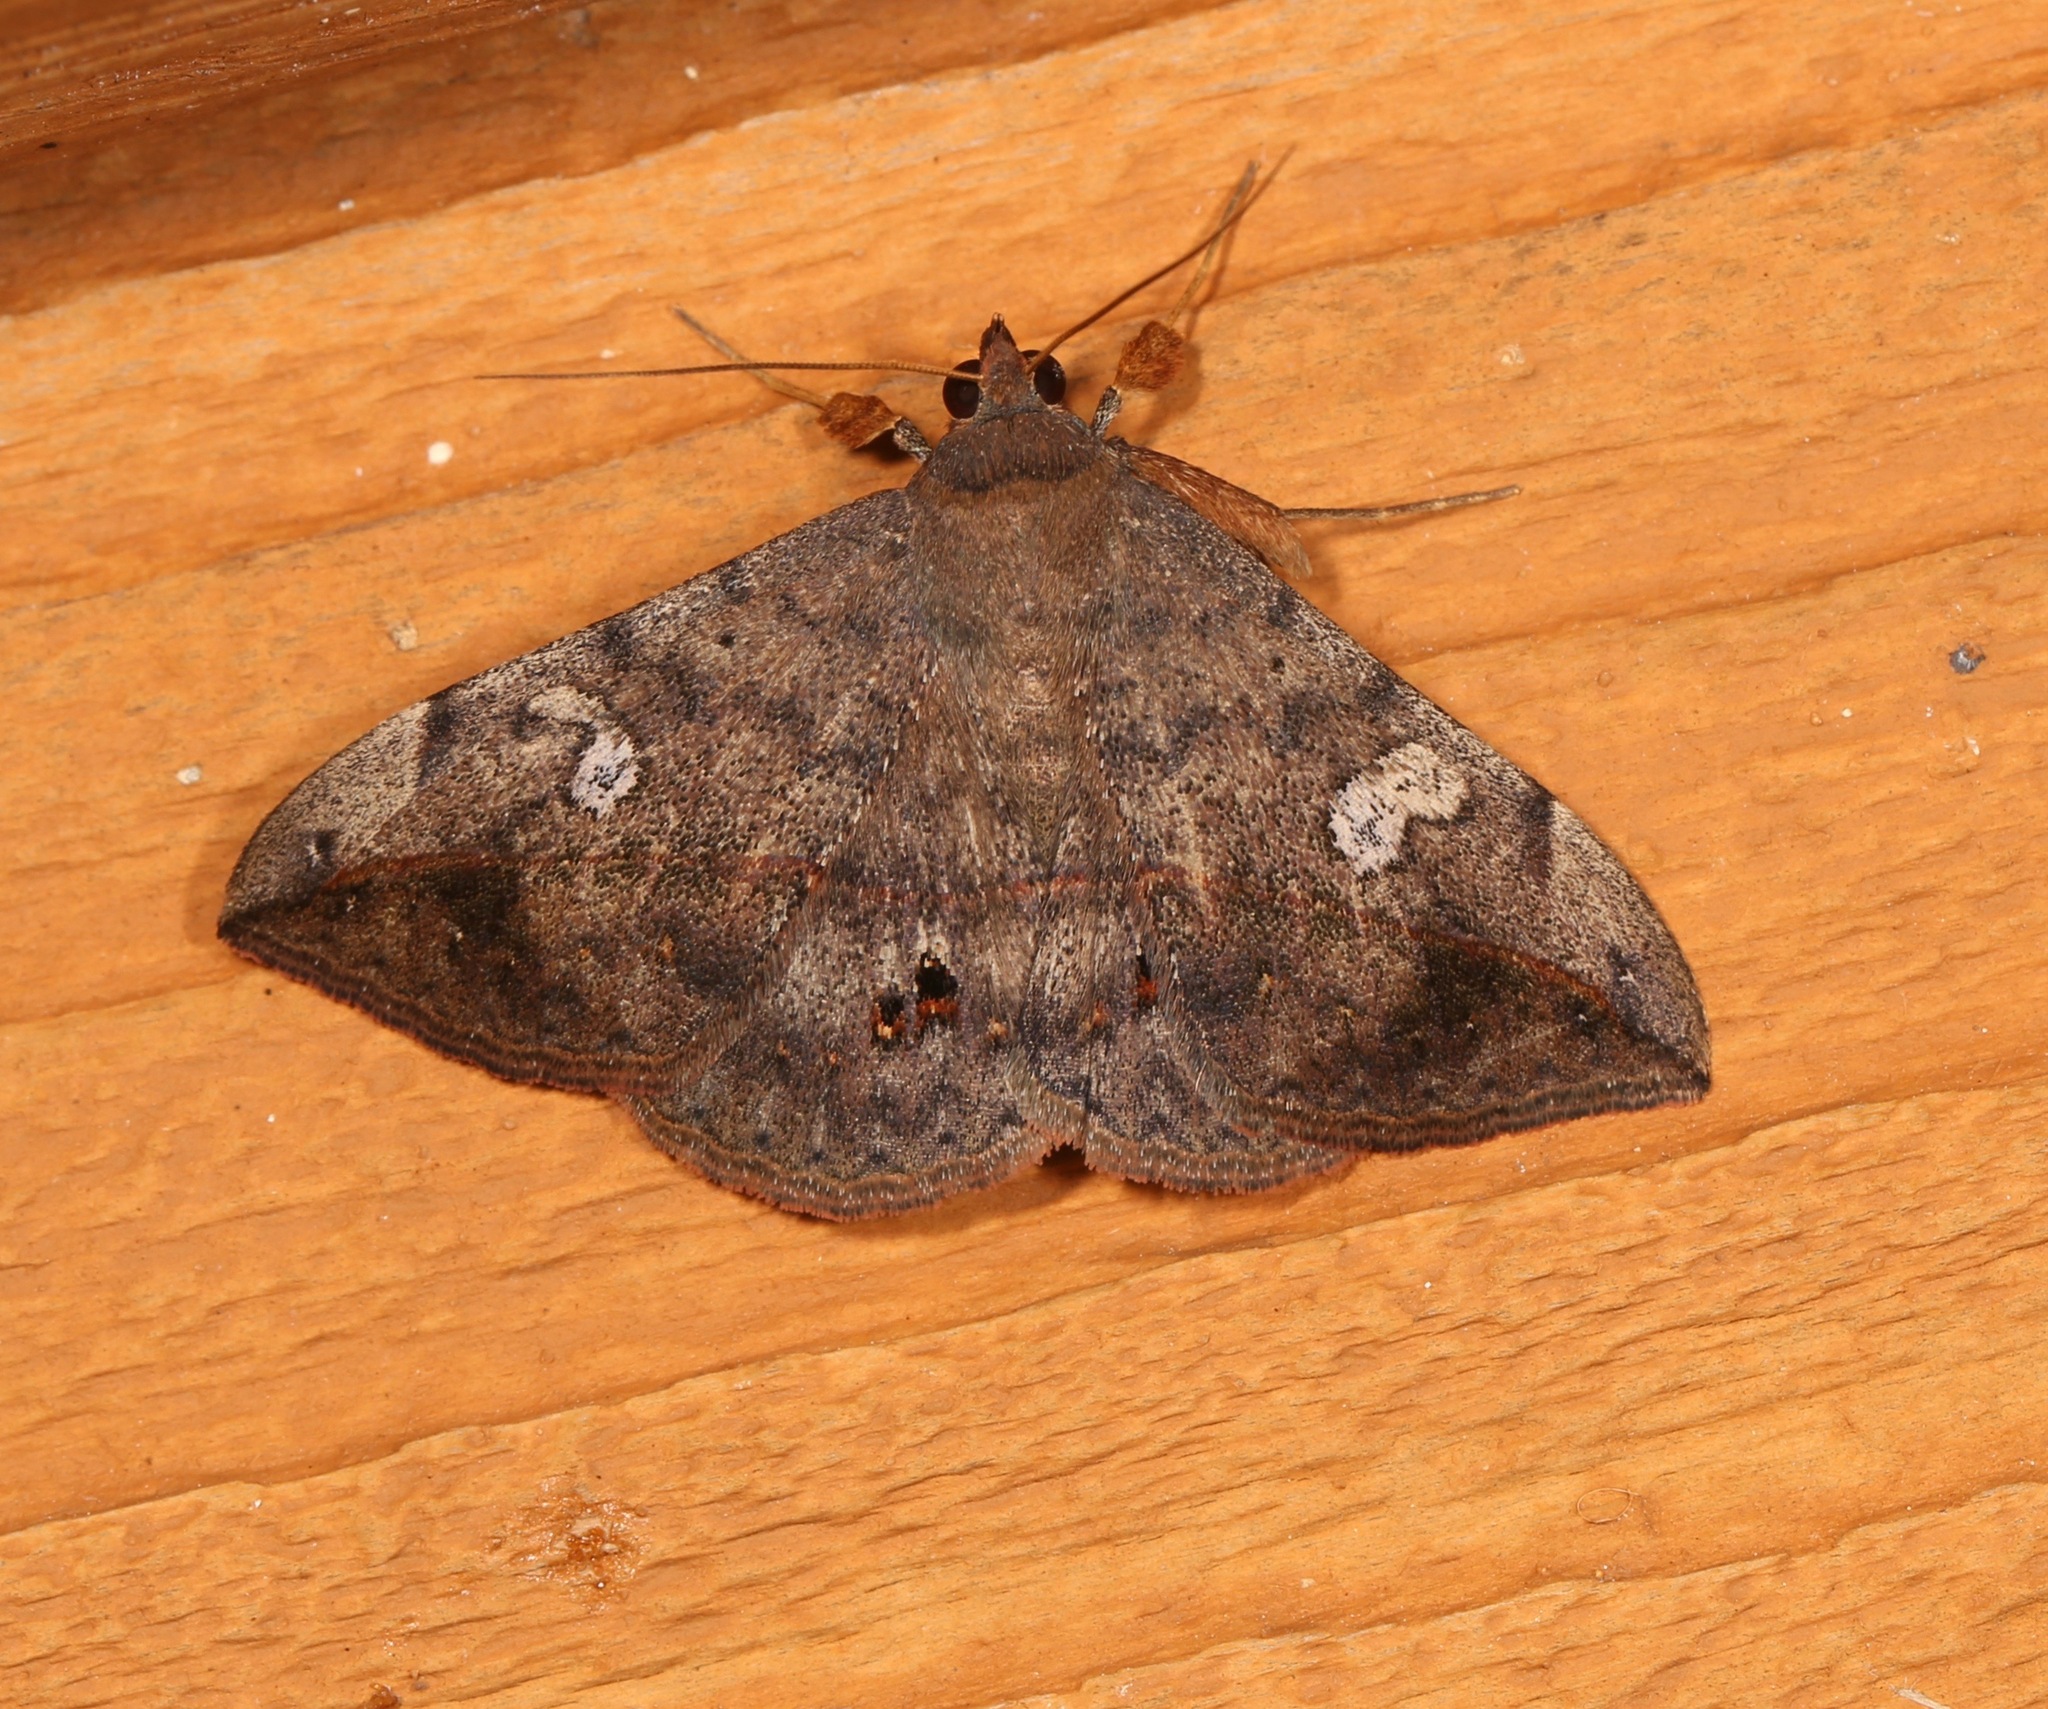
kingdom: Animalia
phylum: Arthropoda
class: Insecta
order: Lepidoptera
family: Erebidae
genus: Anticarsia
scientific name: Anticarsia gemmatalis
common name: Cutworm moth
